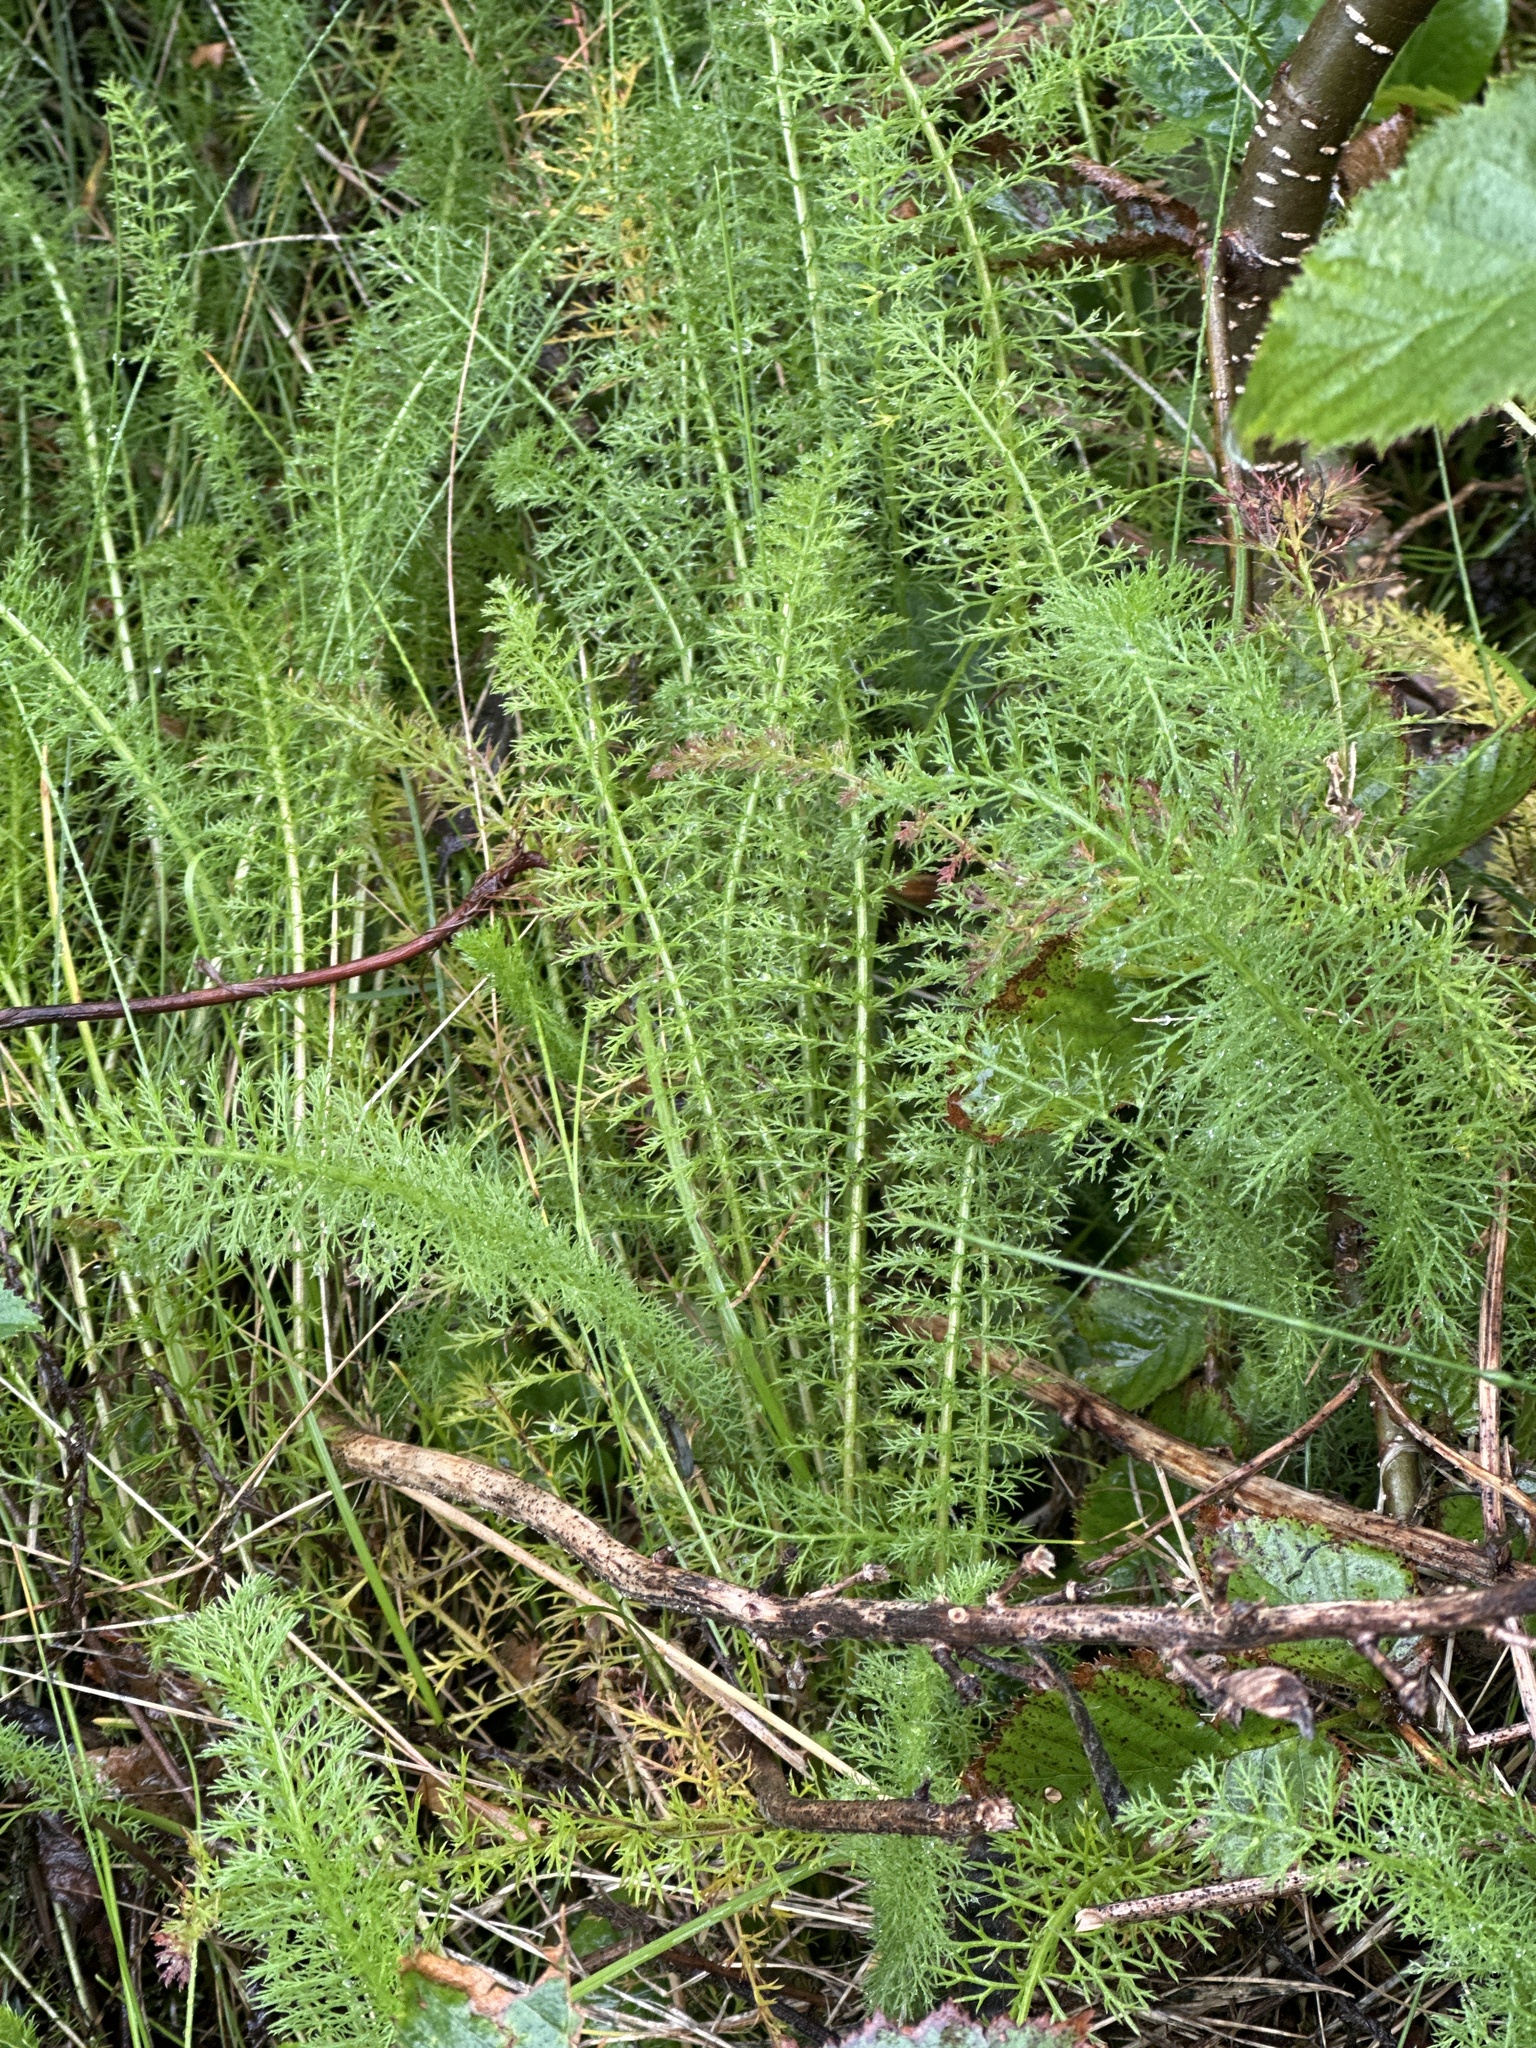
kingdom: Plantae
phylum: Tracheophyta
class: Magnoliopsida
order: Asterales
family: Asteraceae
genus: Achillea
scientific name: Achillea millefolium
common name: Yarrow
